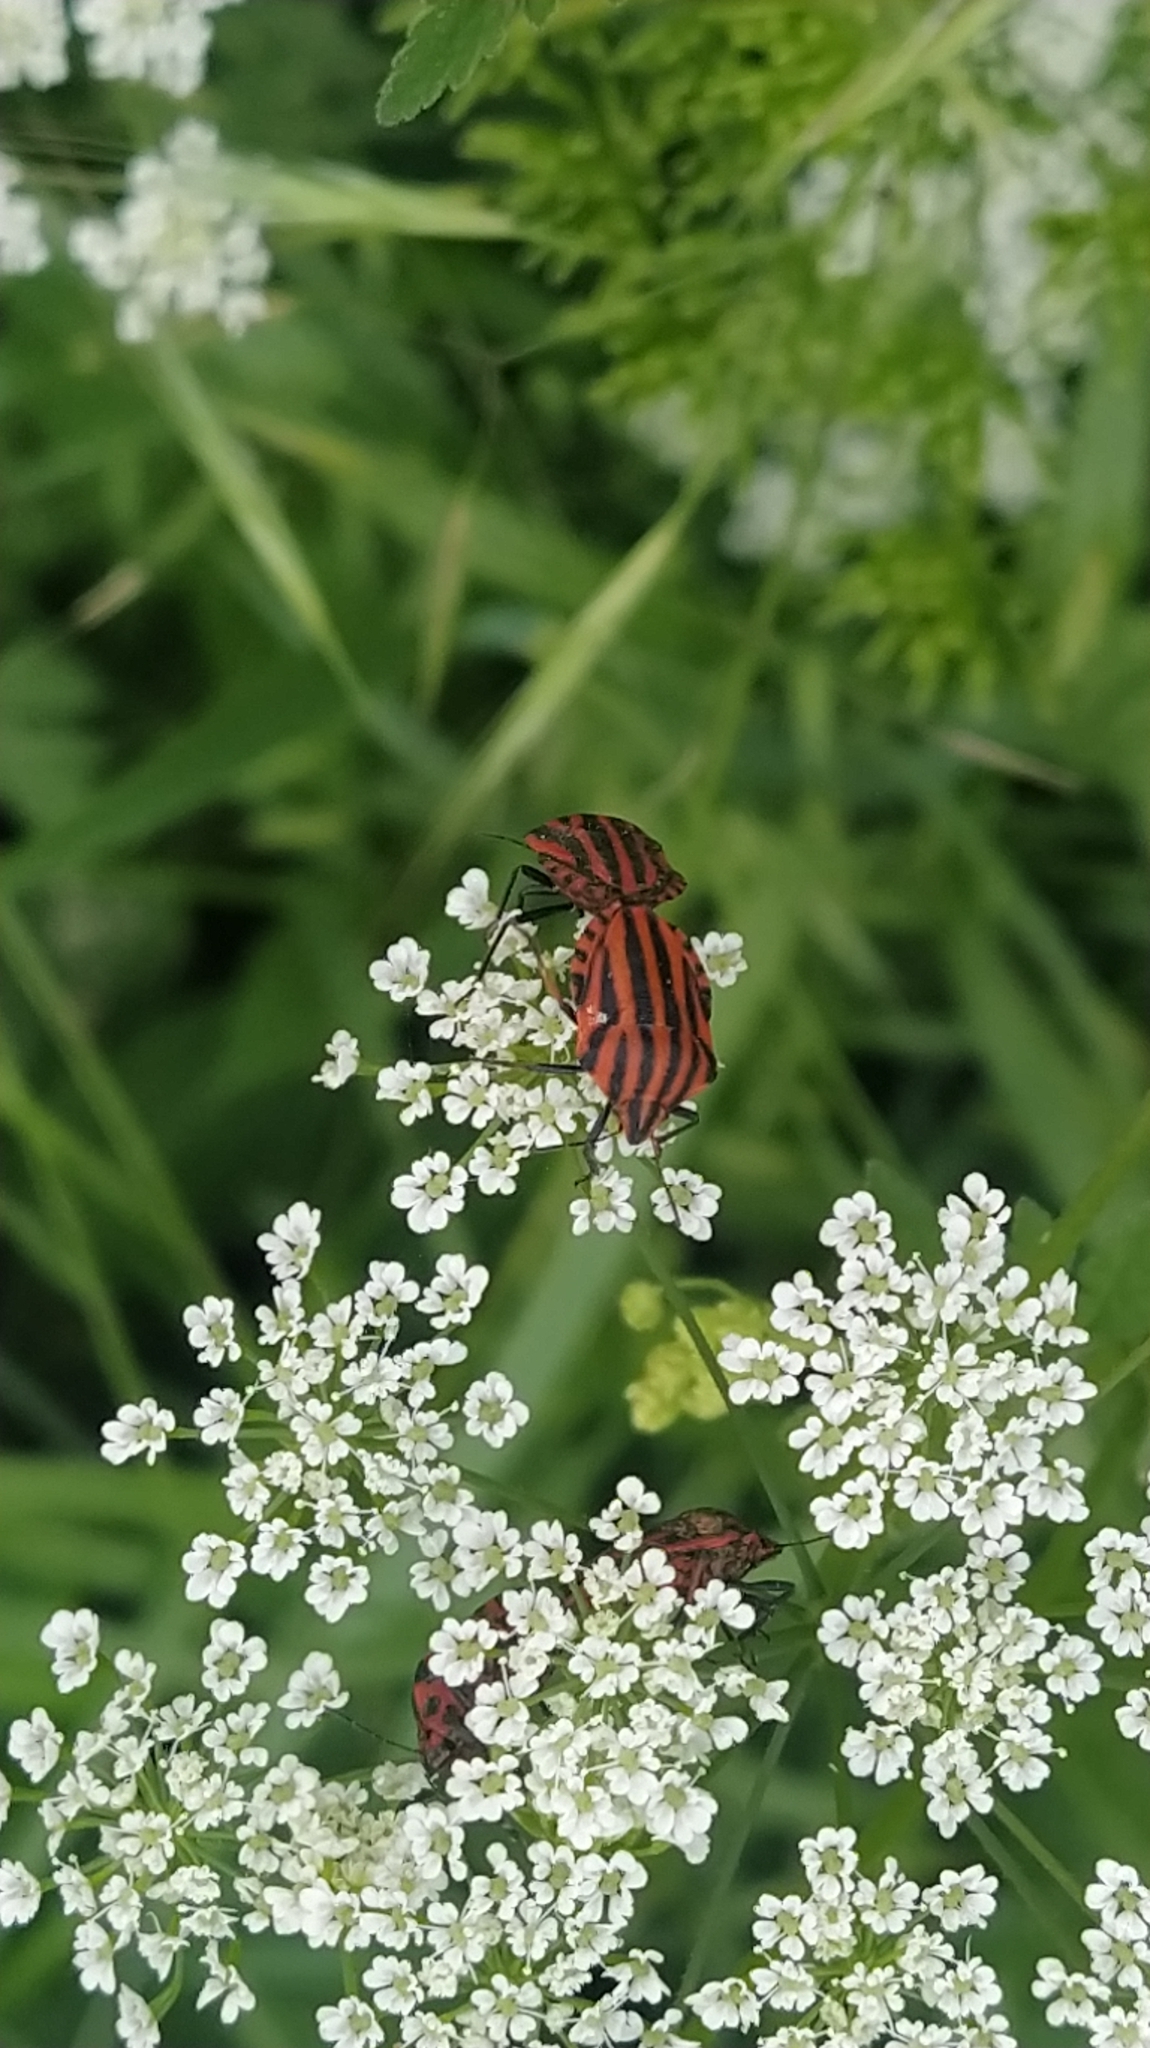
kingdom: Animalia
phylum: Arthropoda
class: Insecta
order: Hemiptera
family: Pentatomidae
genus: Graphosoma
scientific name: Graphosoma italicum
